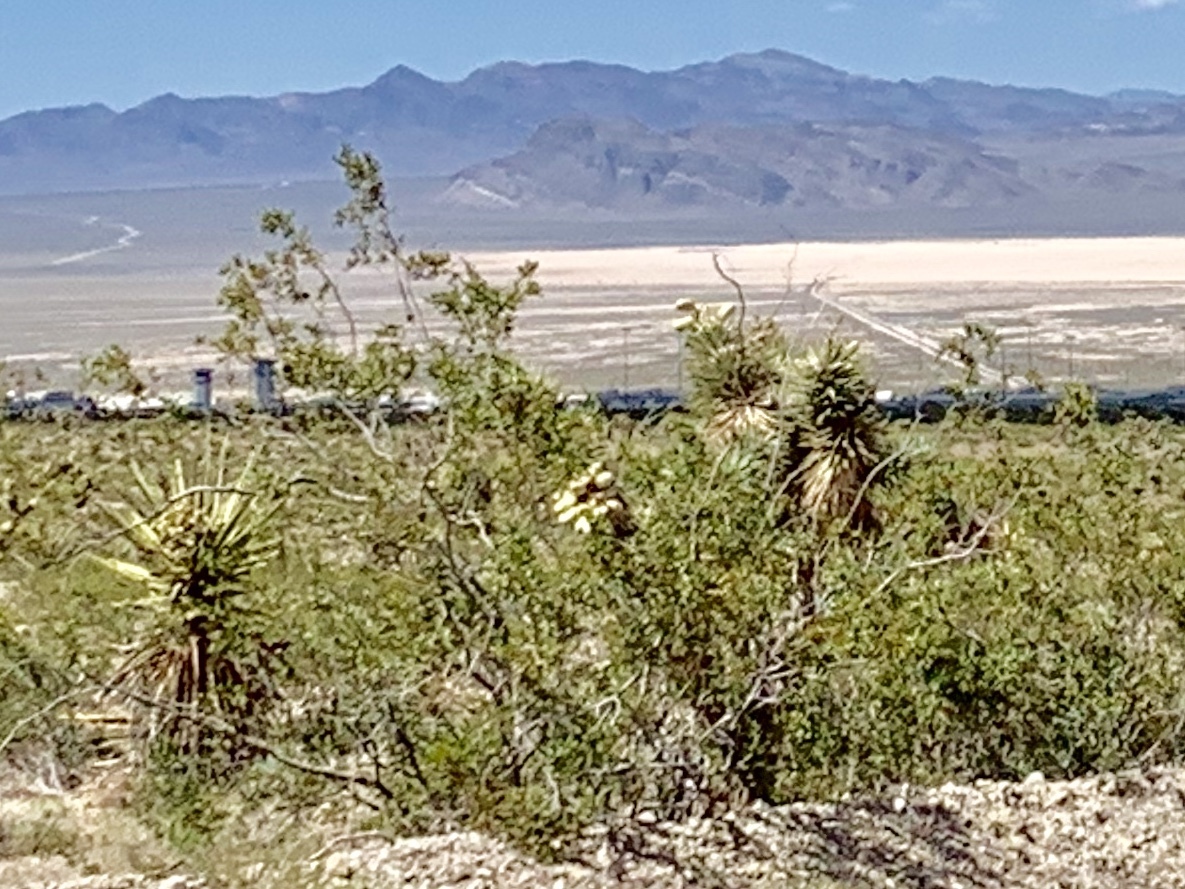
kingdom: Plantae
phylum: Tracheophyta
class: Magnoliopsida
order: Zygophyllales
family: Zygophyllaceae
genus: Larrea
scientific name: Larrea tridentata
